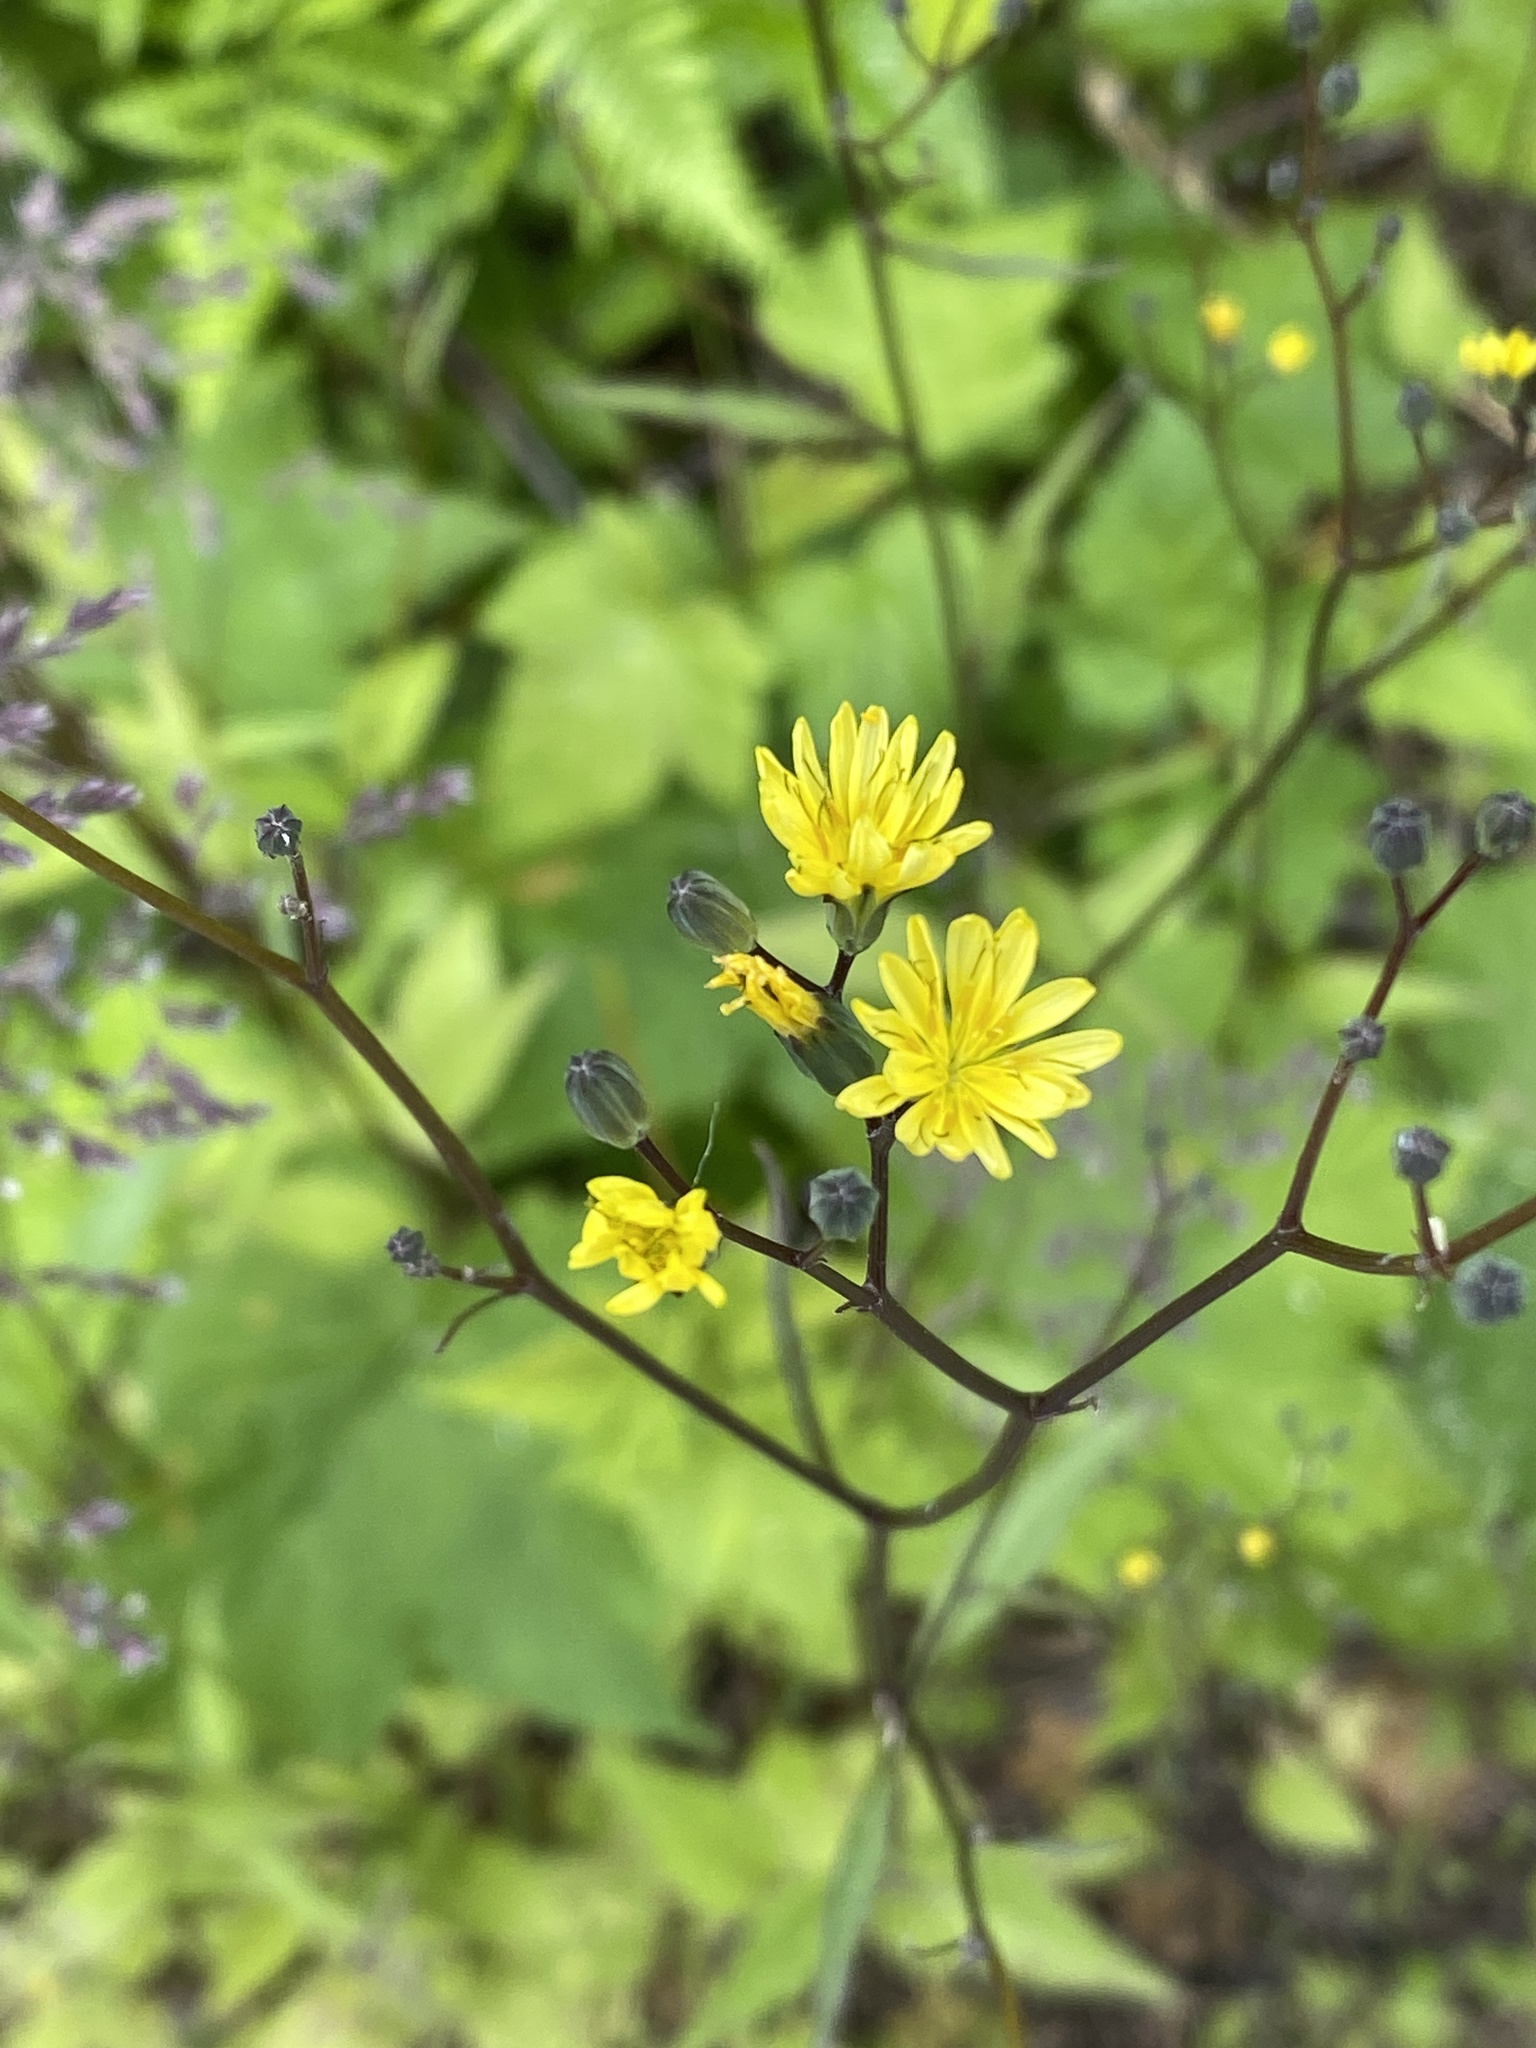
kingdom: Plantae
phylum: Tracheophyta
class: Magnoliopsida
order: Asterales
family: Asteraceae
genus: Lapsana
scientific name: Lapsana communis
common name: Nipplewort
